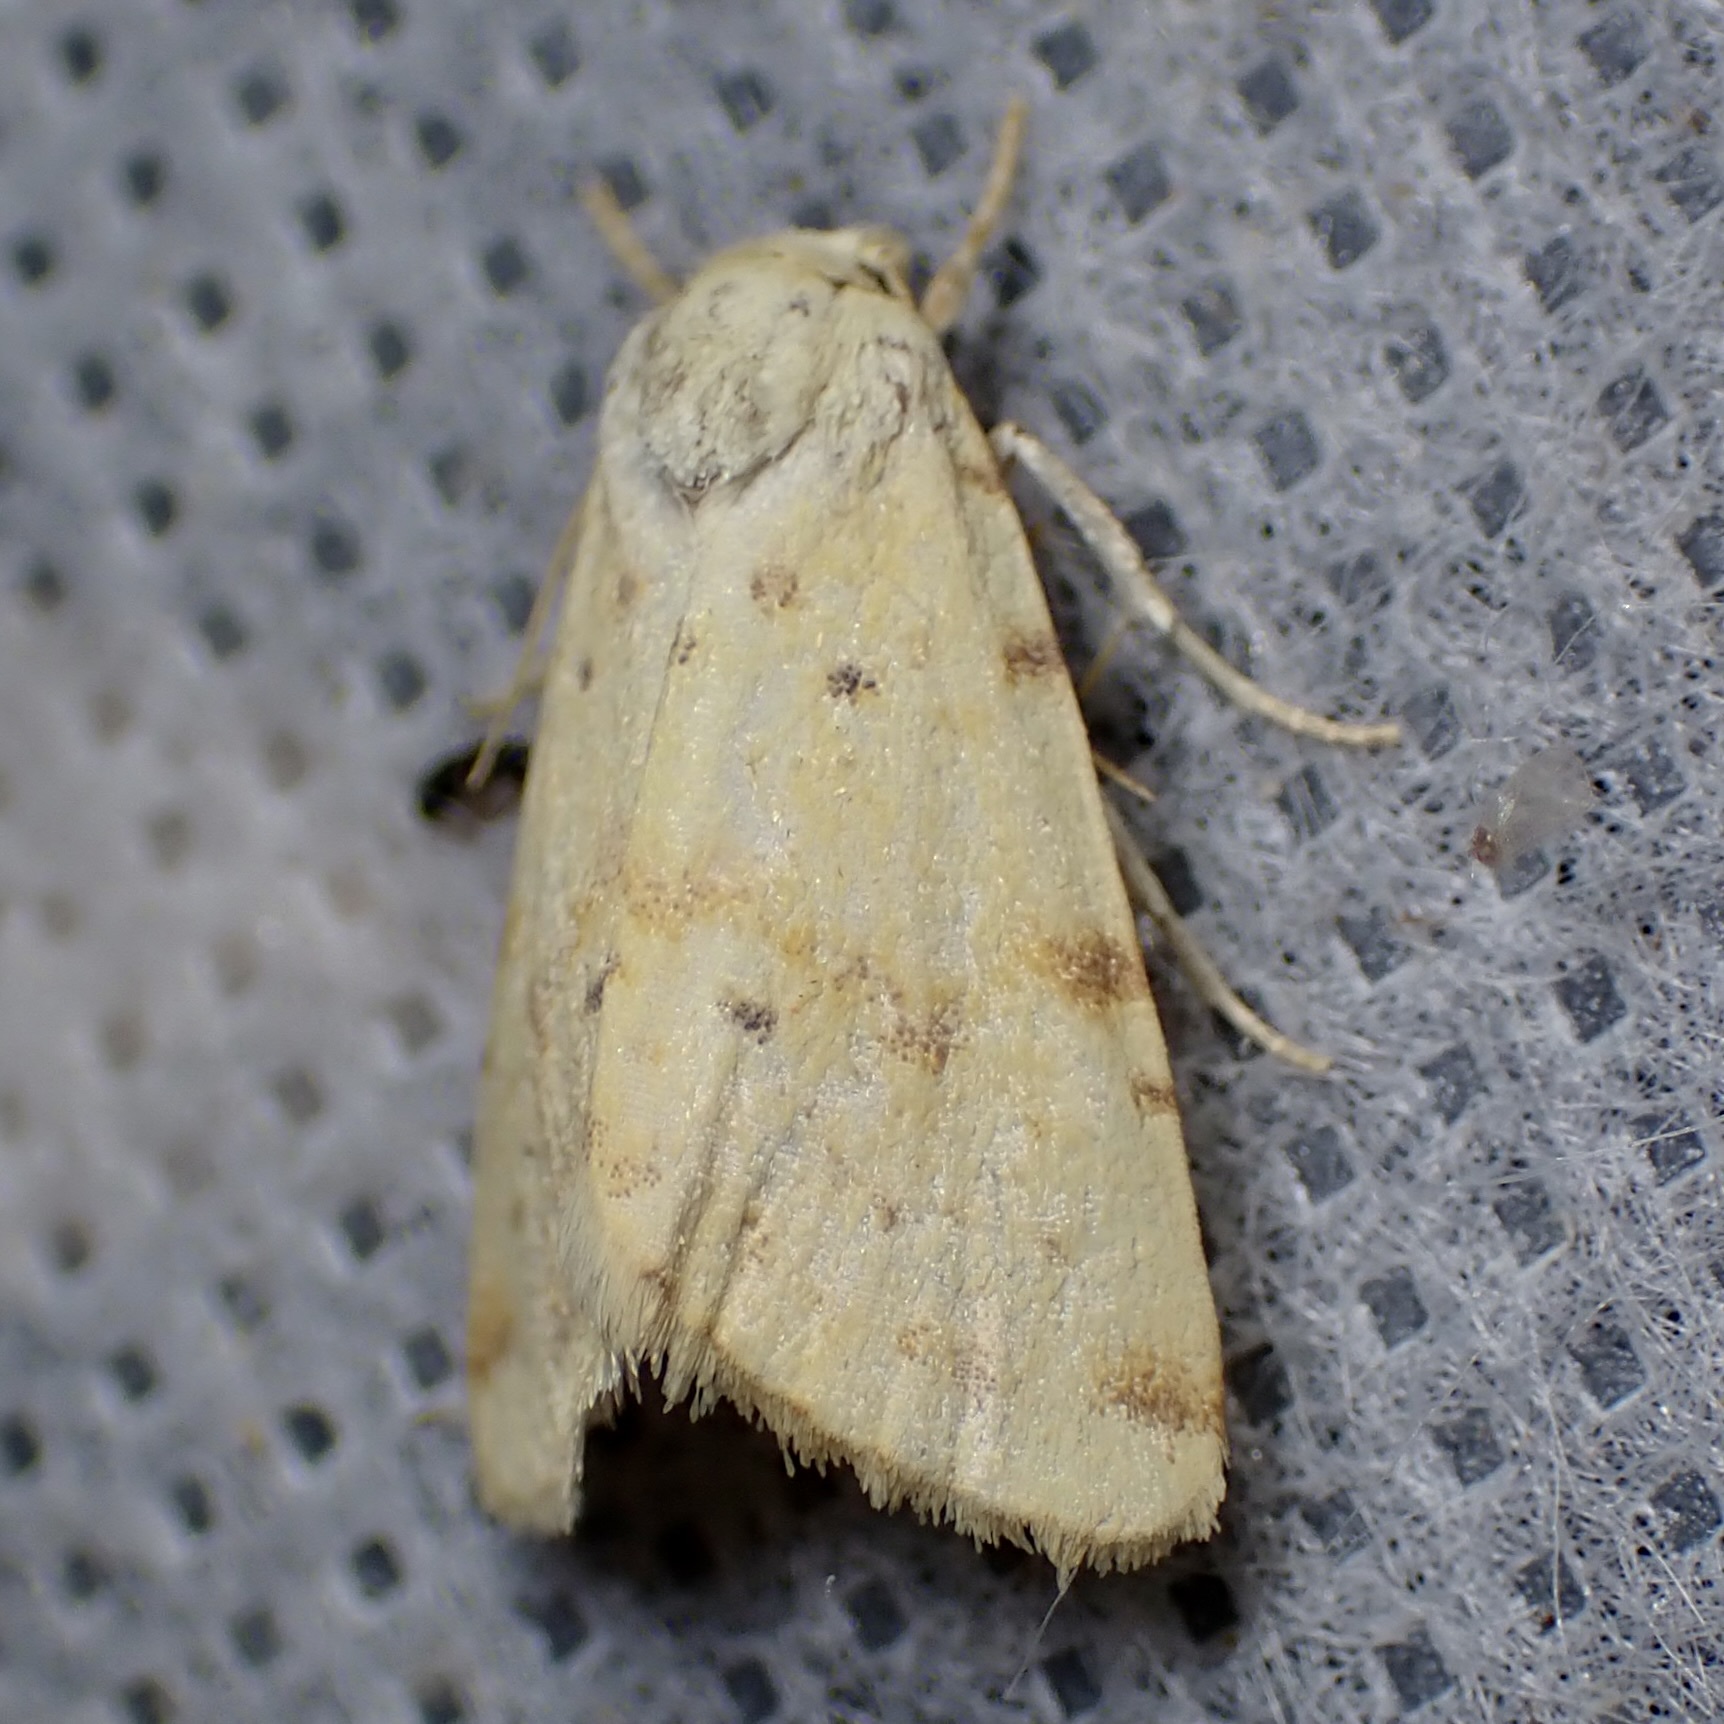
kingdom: Animalia
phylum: Arthropoda
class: Insecta
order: Lepidoptera
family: Noctuidae
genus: Azenia
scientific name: Azenia implora
